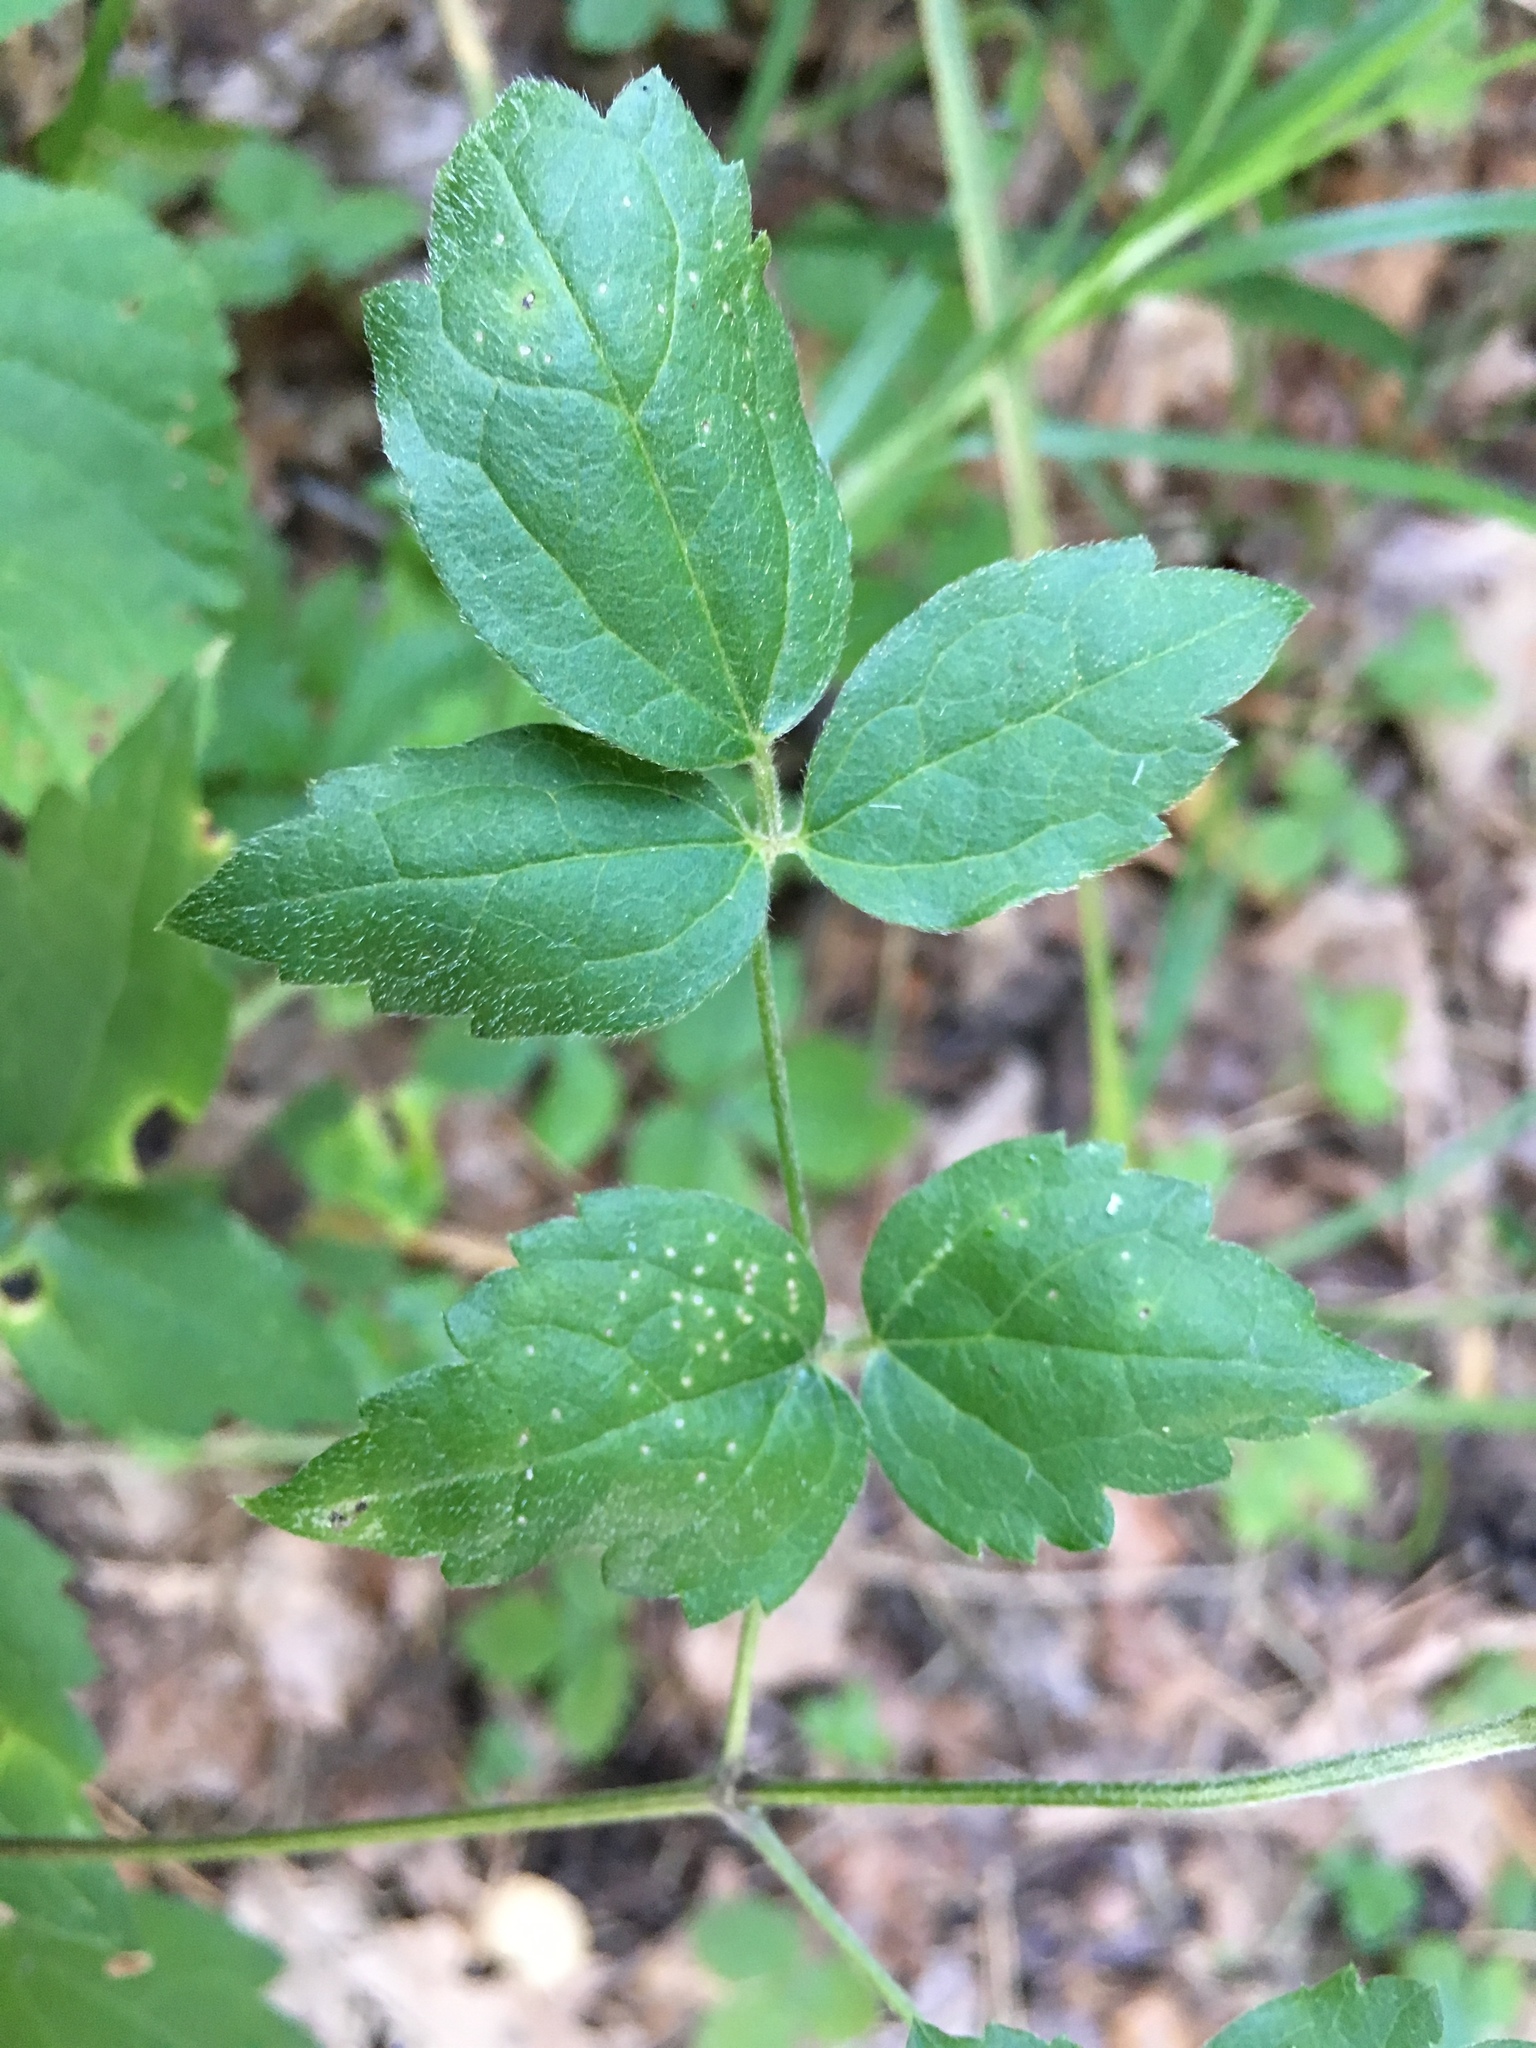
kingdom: Plantae
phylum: Tracheophyta
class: Magnoliopsida
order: Ranunculales
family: Ranunculaceae
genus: Clematis
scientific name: Clematis vitalba
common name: Evergreen clematis
